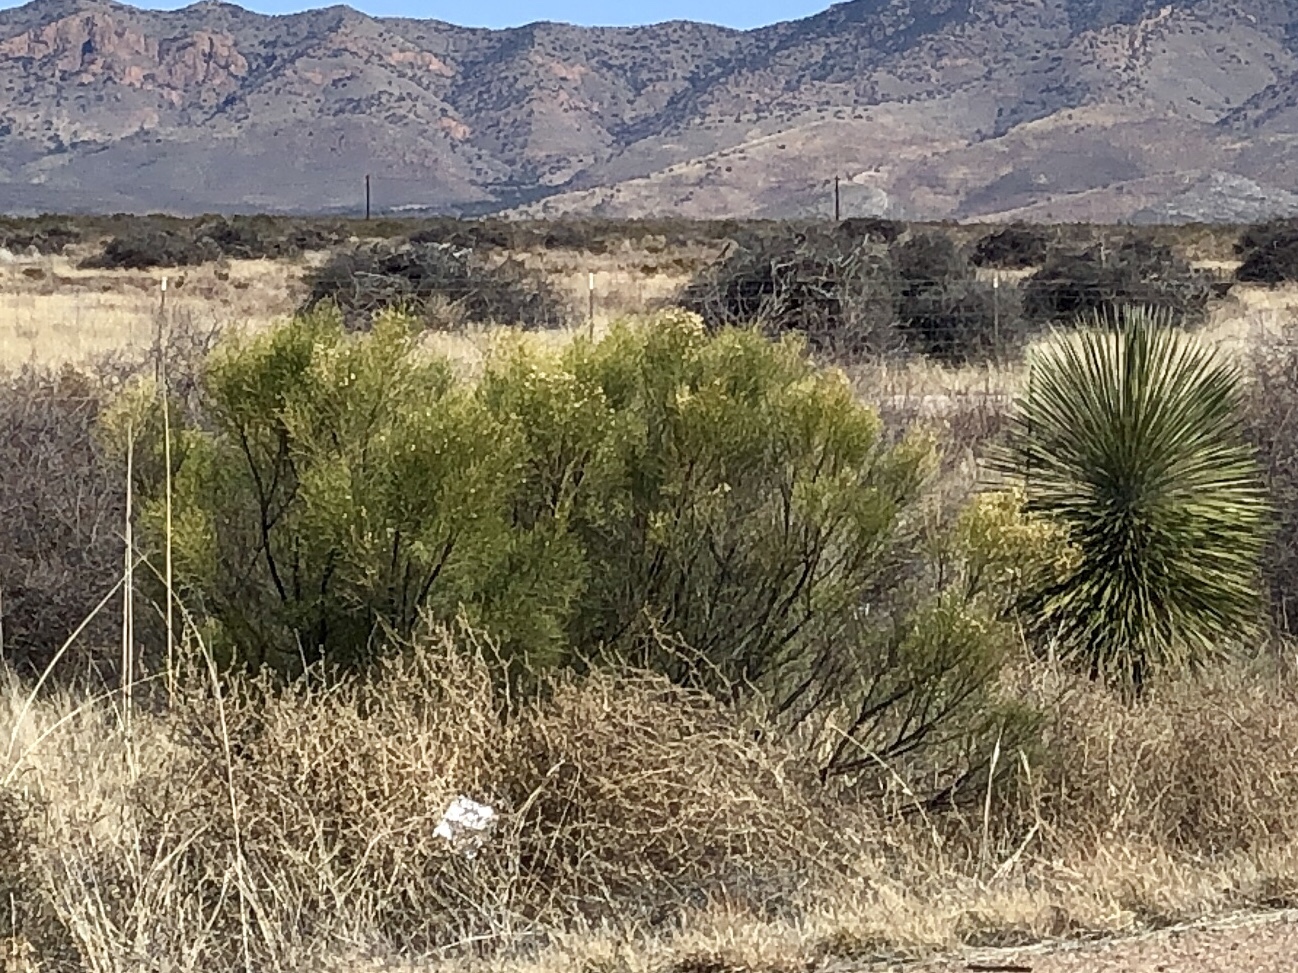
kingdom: Plantae
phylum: Tracheophyta
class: Magnoliopsida
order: Asterales
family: Asteraceae
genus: Baccharis
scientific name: Baccharis sarothroides
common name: Desert-broom
